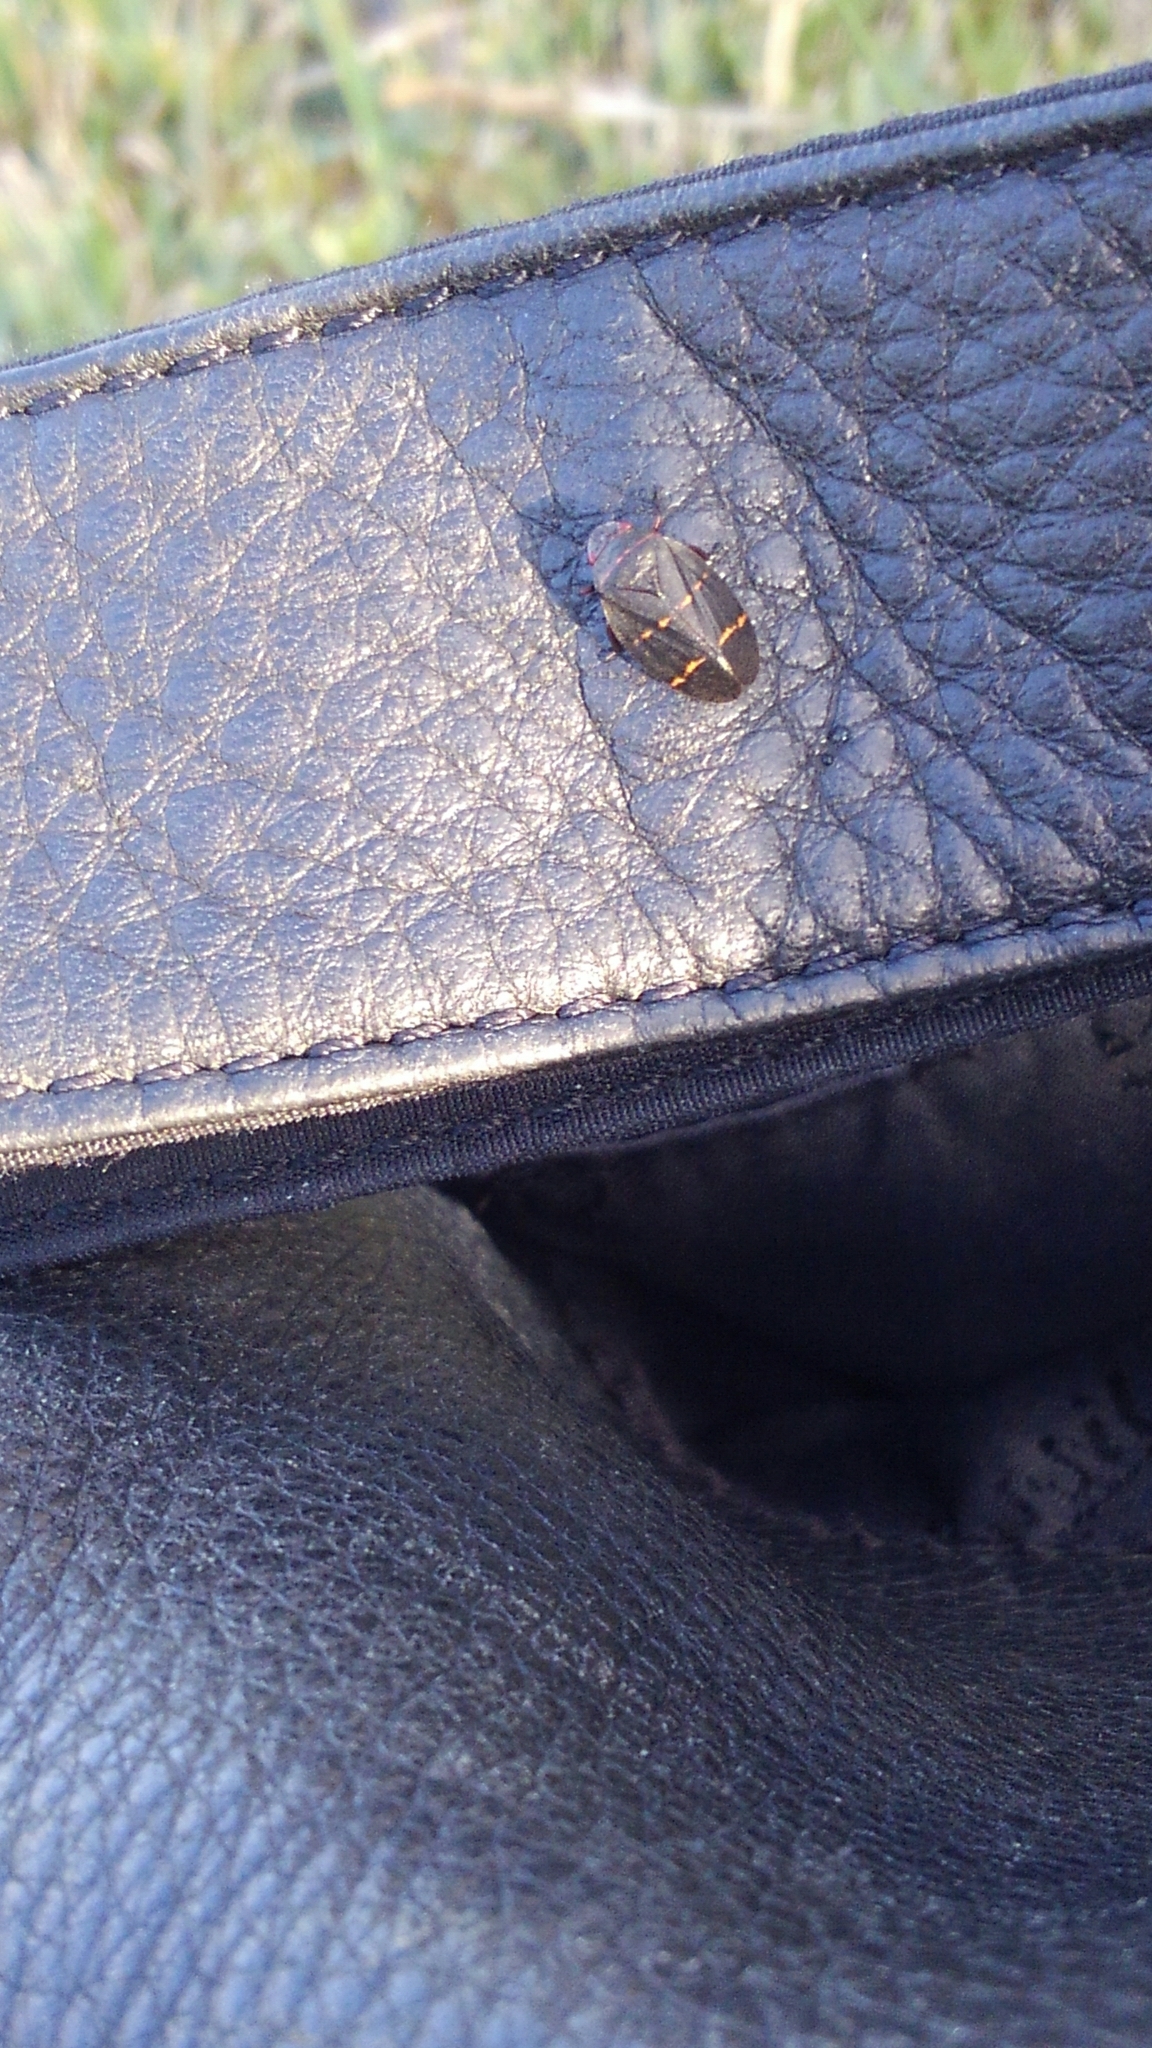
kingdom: Animalia
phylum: Arthropoda
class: Insecta
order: Hemiptera
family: Cercopidae
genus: Prosapia
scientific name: Prosapia bicincta
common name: Twolined spittlebug
